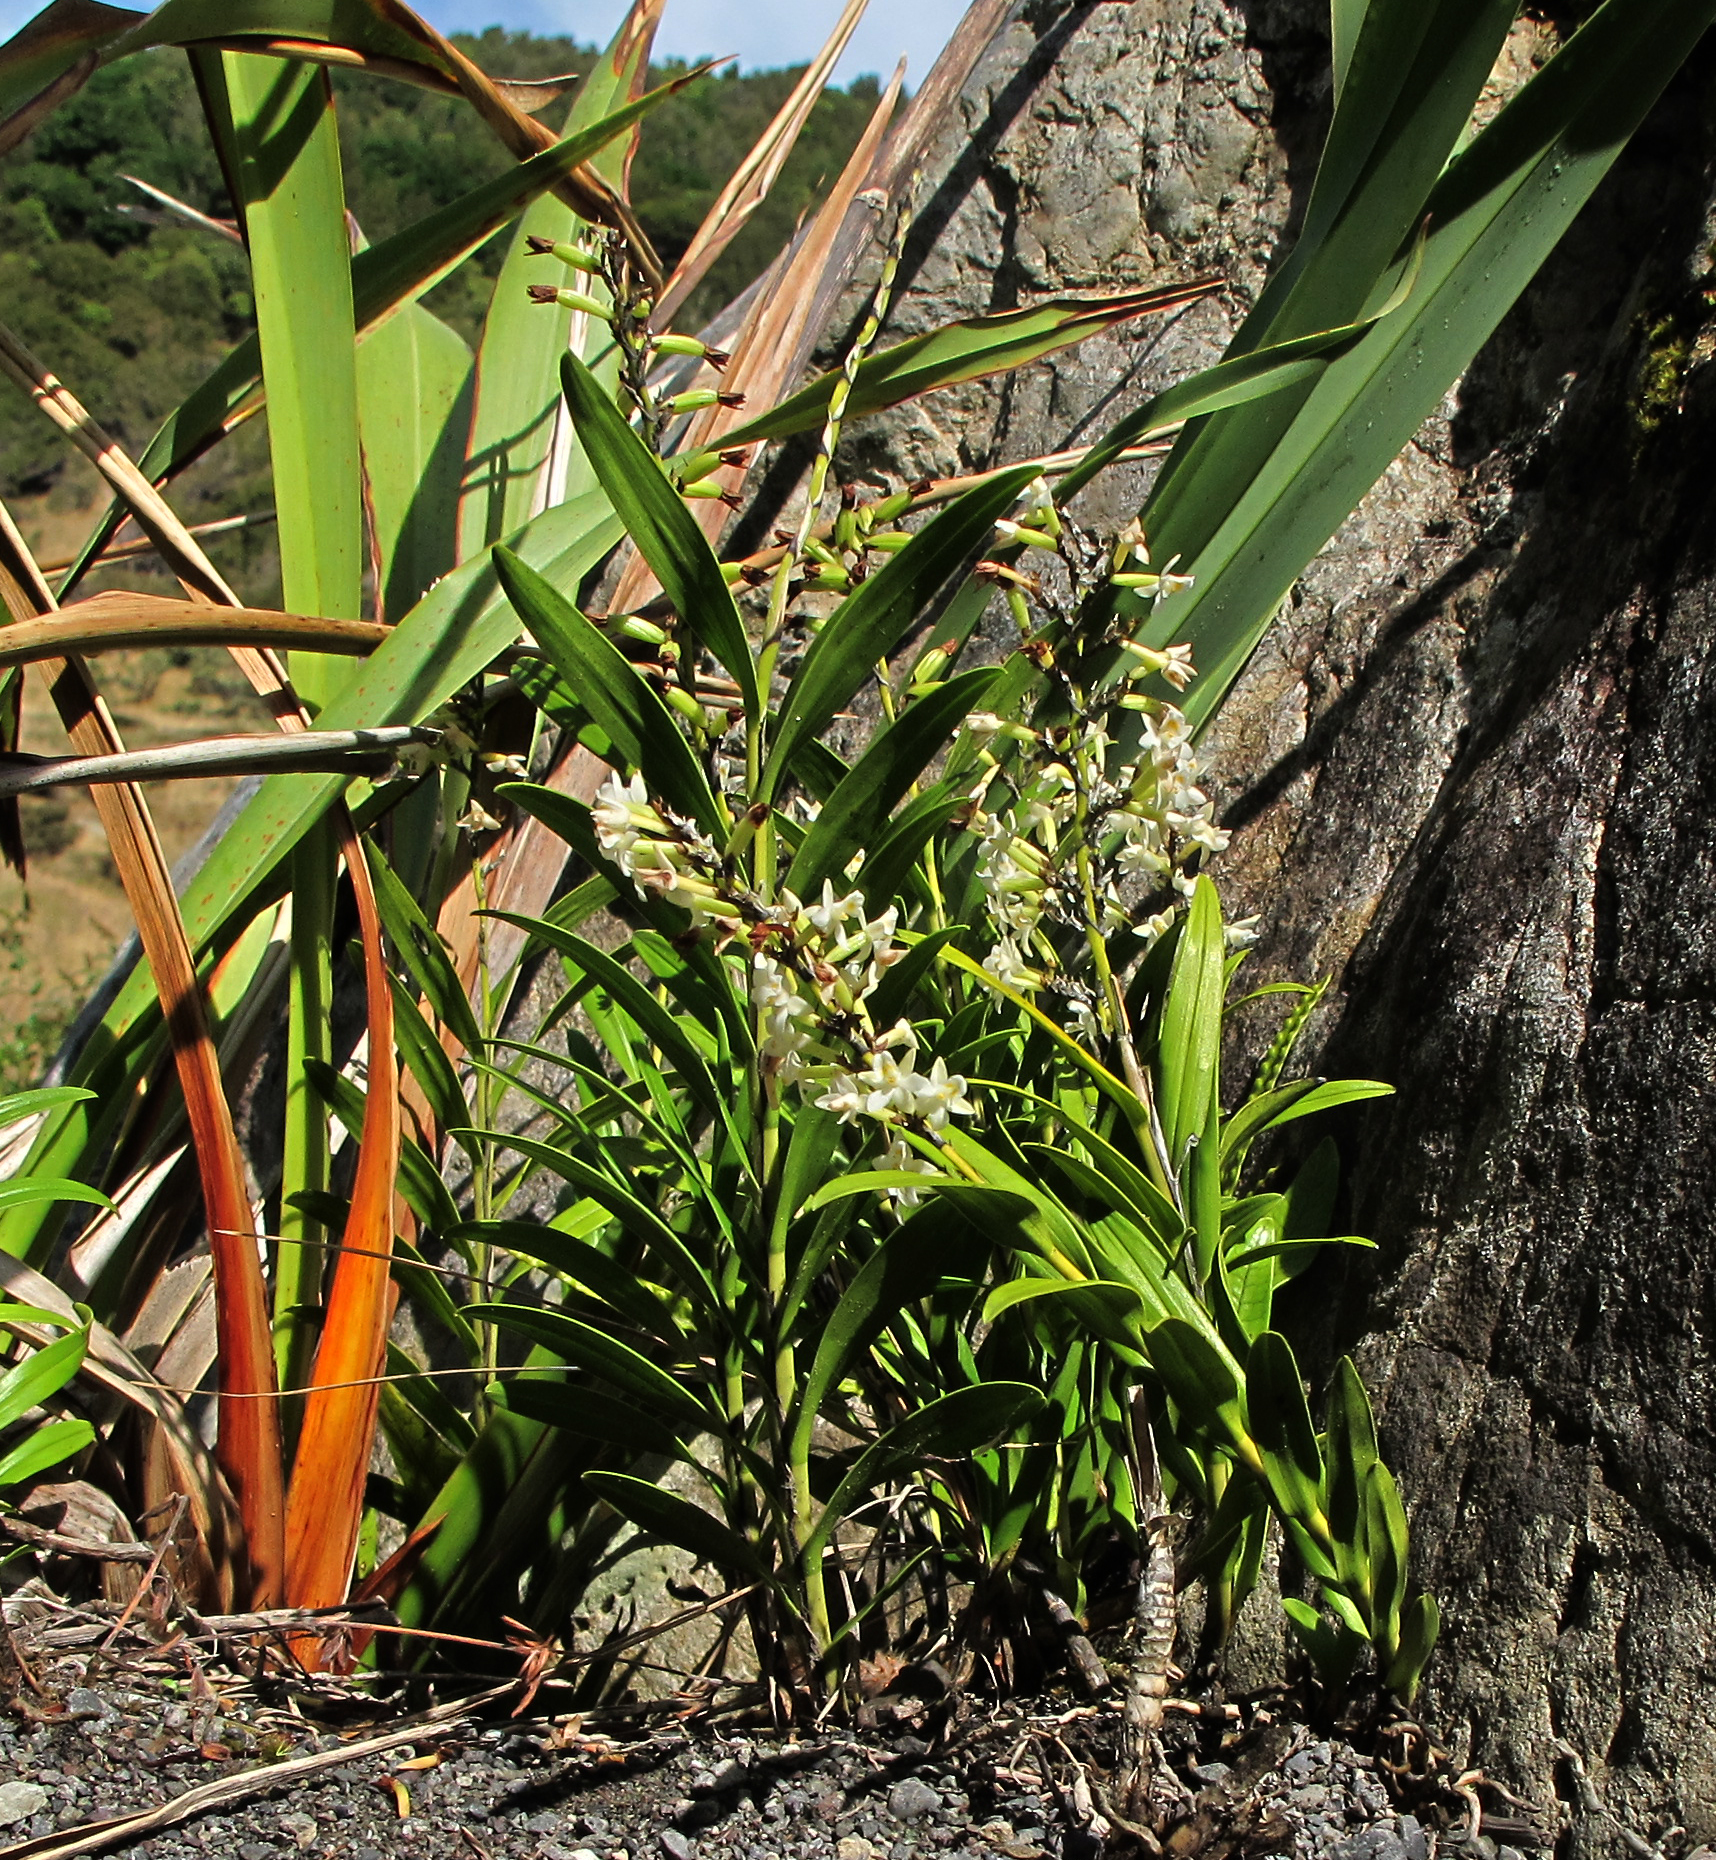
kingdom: Plantae
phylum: Tracheophyta
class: Liliopsida
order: Asparagales
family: Orchidaceae
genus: Earina
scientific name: Earina autumnalis
